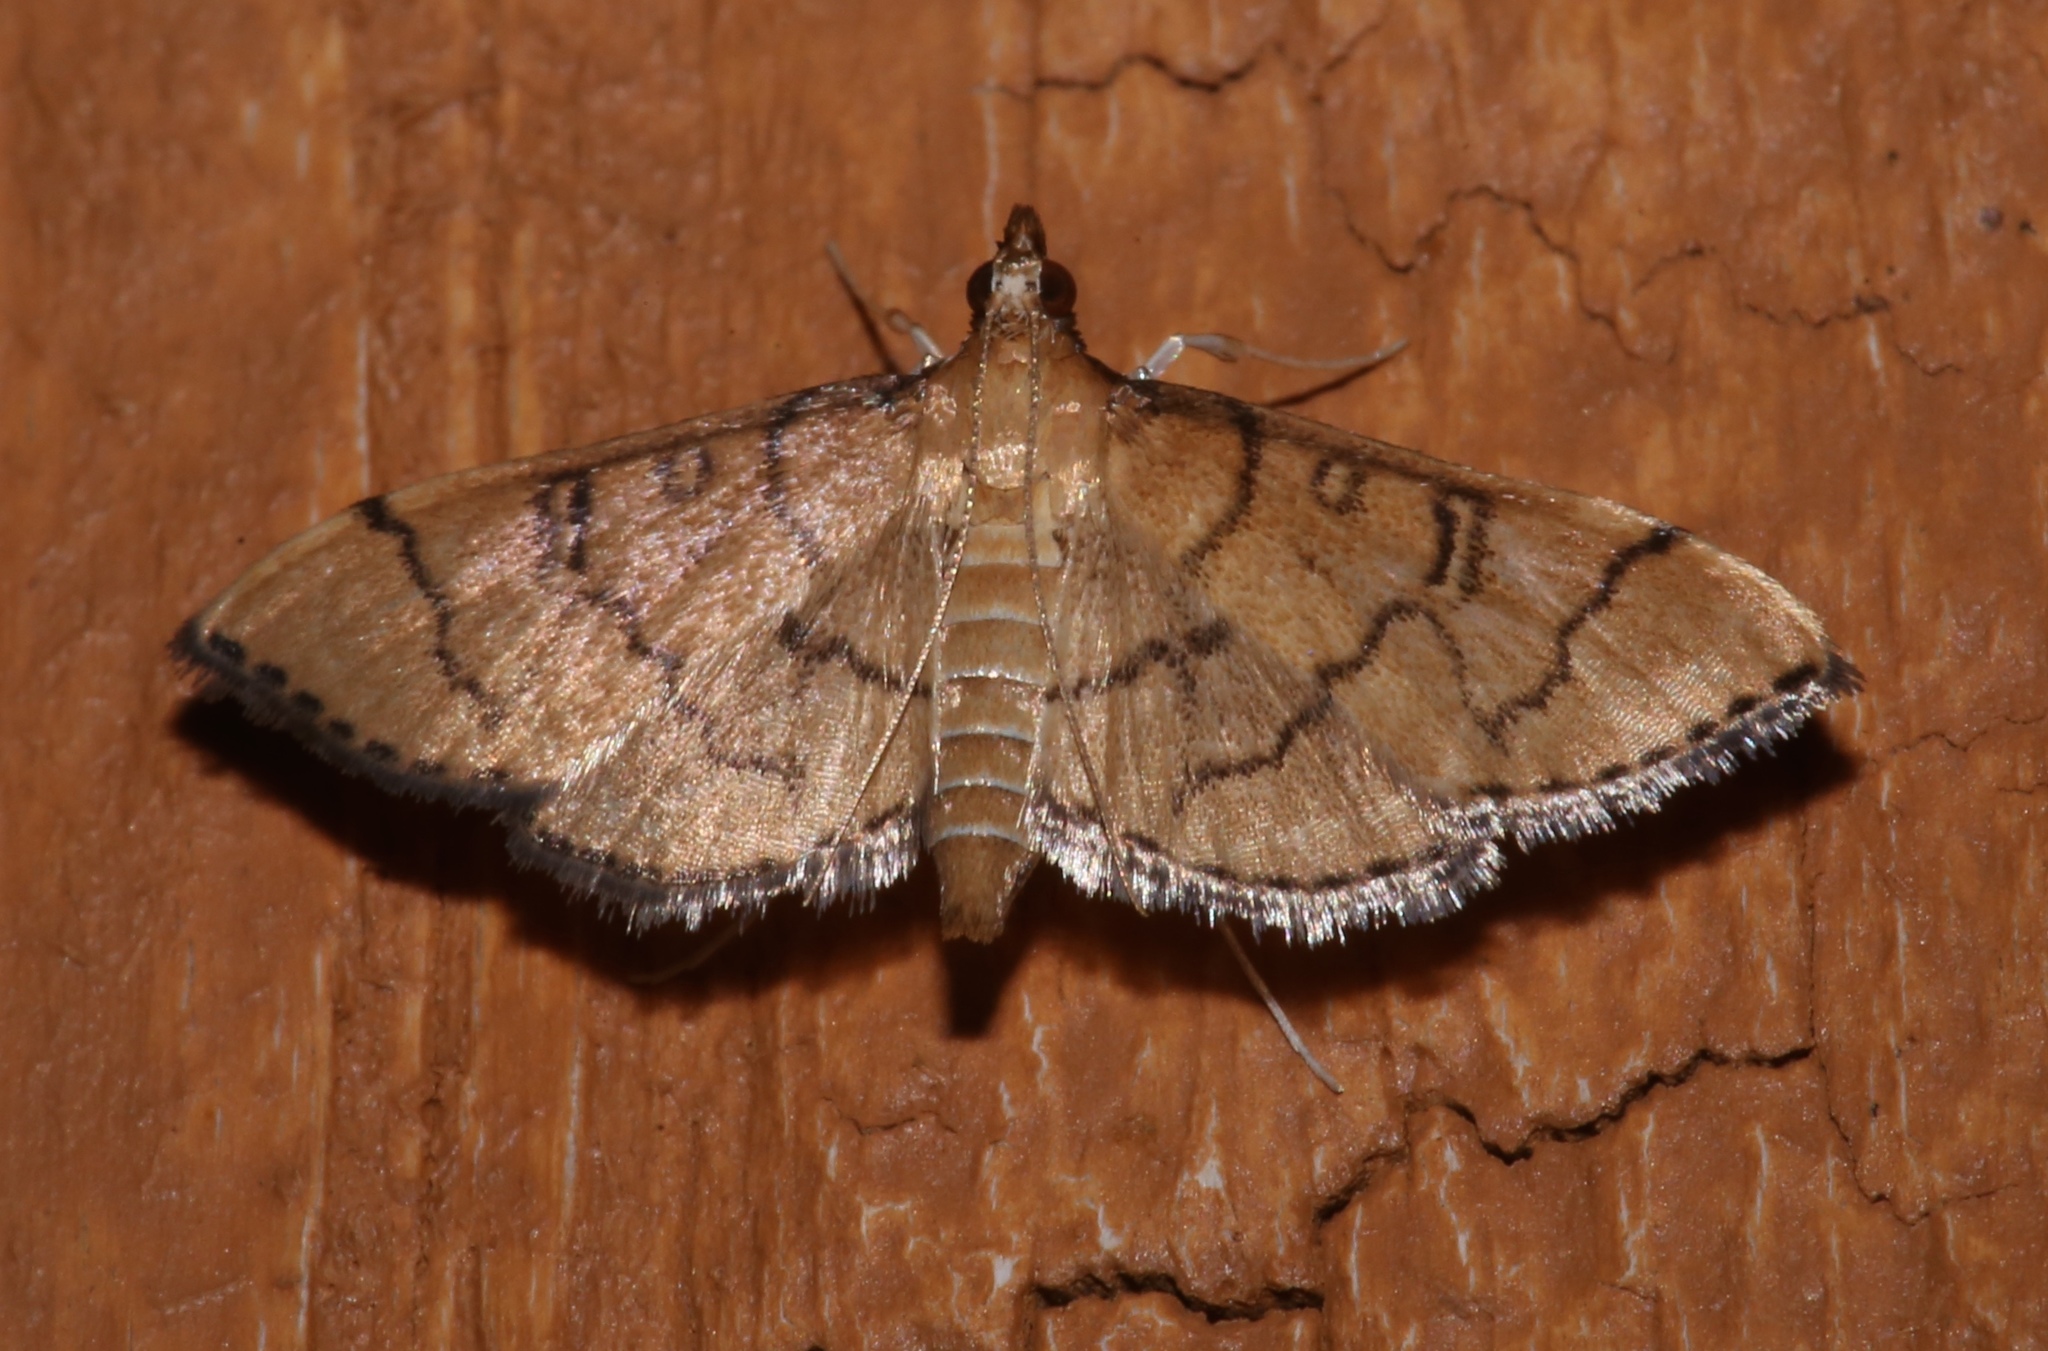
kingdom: Animalia
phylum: Arthropoda
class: Insecta
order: Lepidoptera
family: Crambidae
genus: Lamprosema
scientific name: Lamprosema Blepharomastix ranalis
